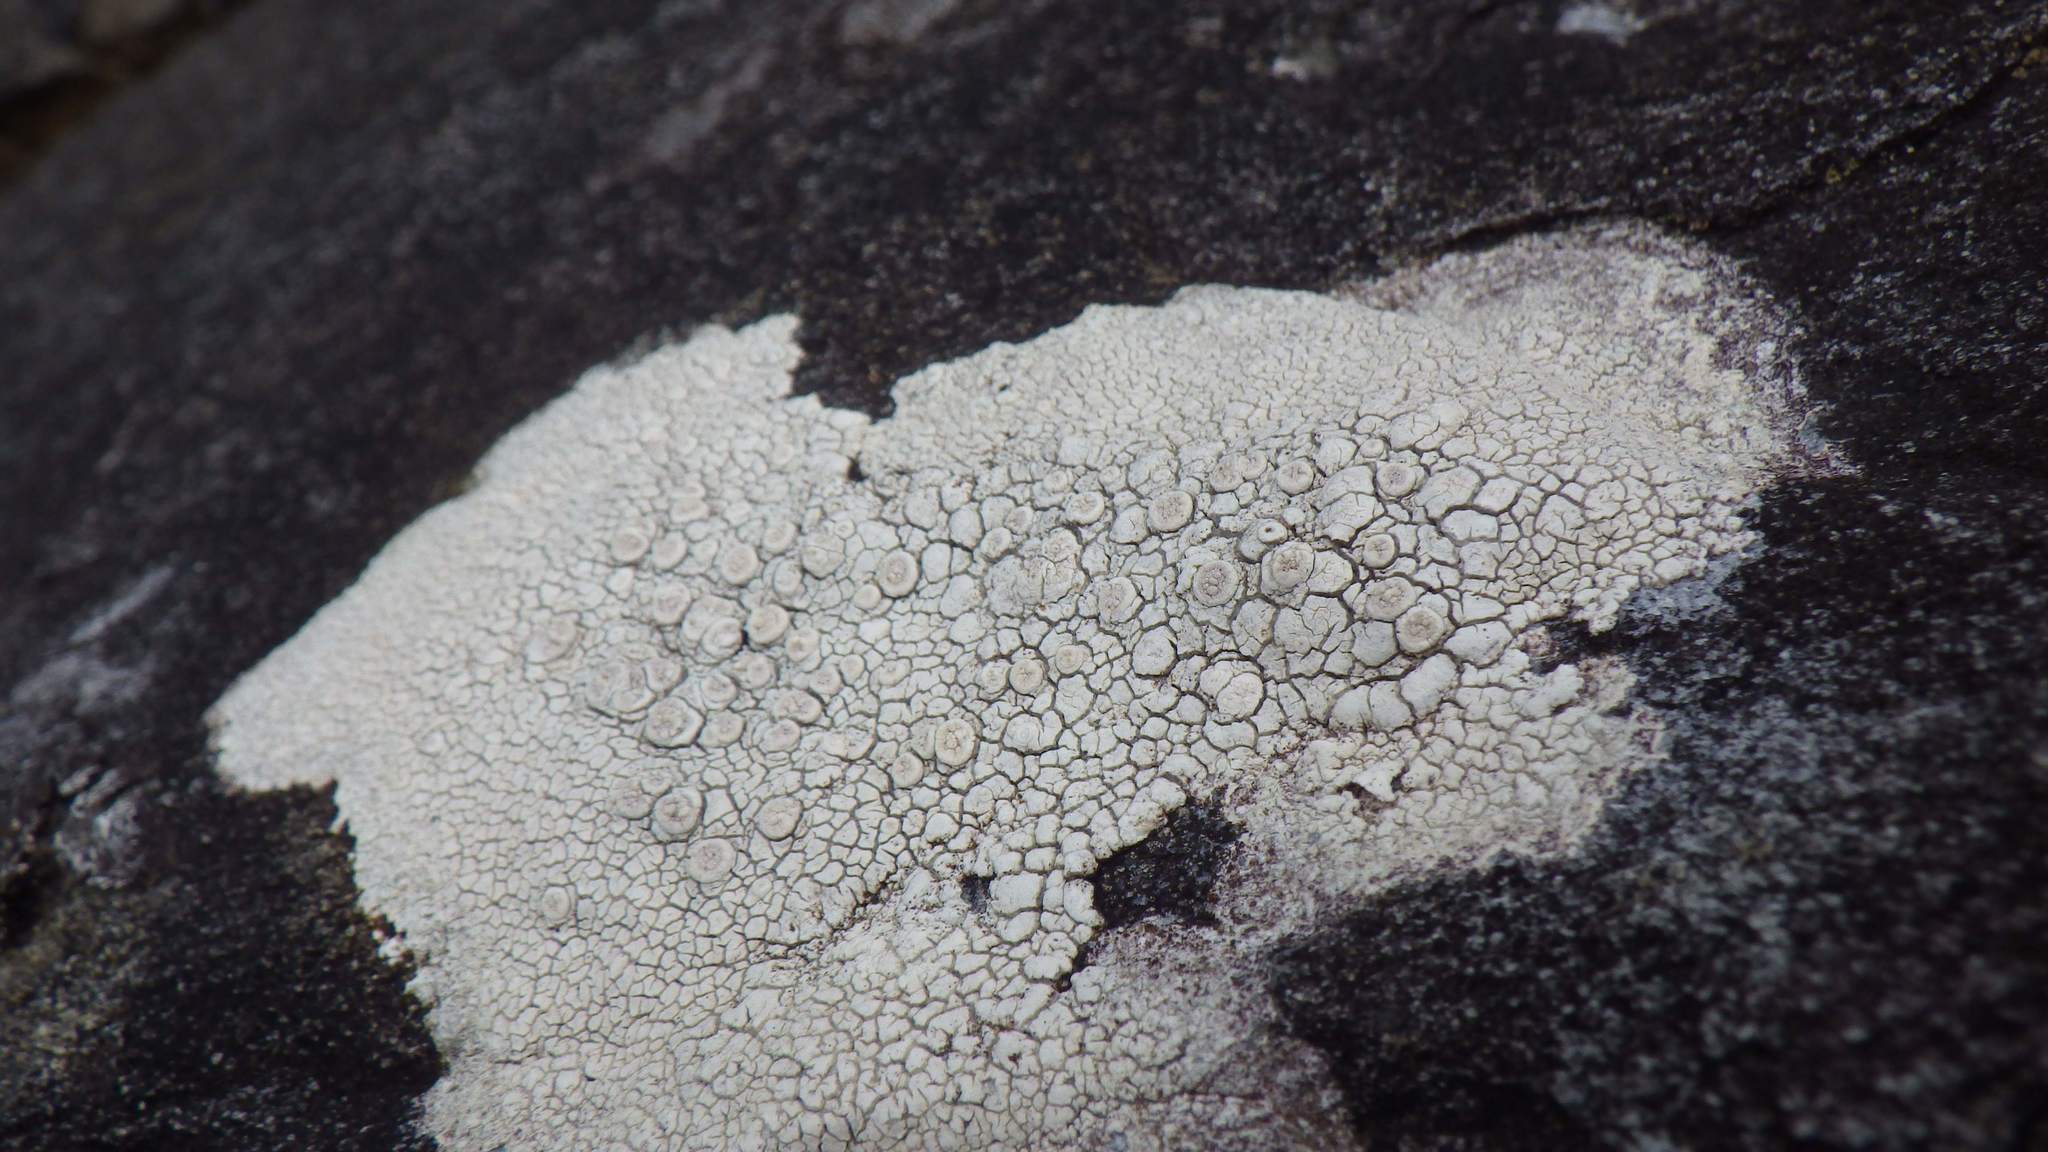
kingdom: Fungi
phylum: Ascomycota
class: Lecanoromycetes
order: Pertusariales
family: Ochrolechiaceae
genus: Ochrolechia
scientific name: Ochrolechia parella
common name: Crab's eye lichen
